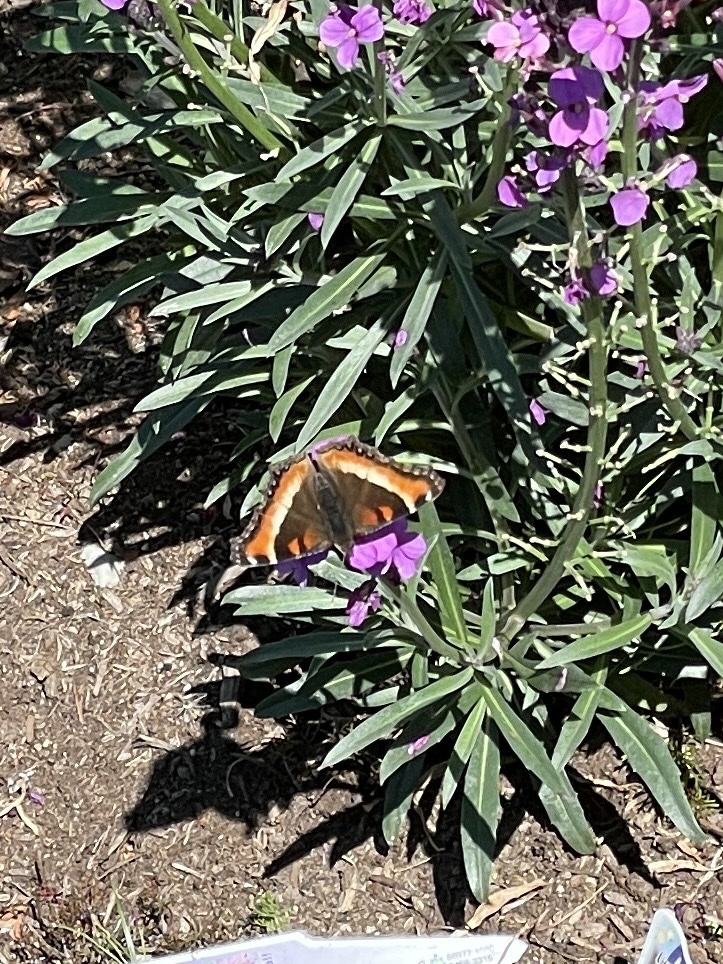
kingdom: Animalia
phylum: Arthropoda
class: Insecta
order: Lepidoptera
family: Nymphalidae
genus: Aglais
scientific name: Aglais milberti
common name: Milbert's tortoiseshell
